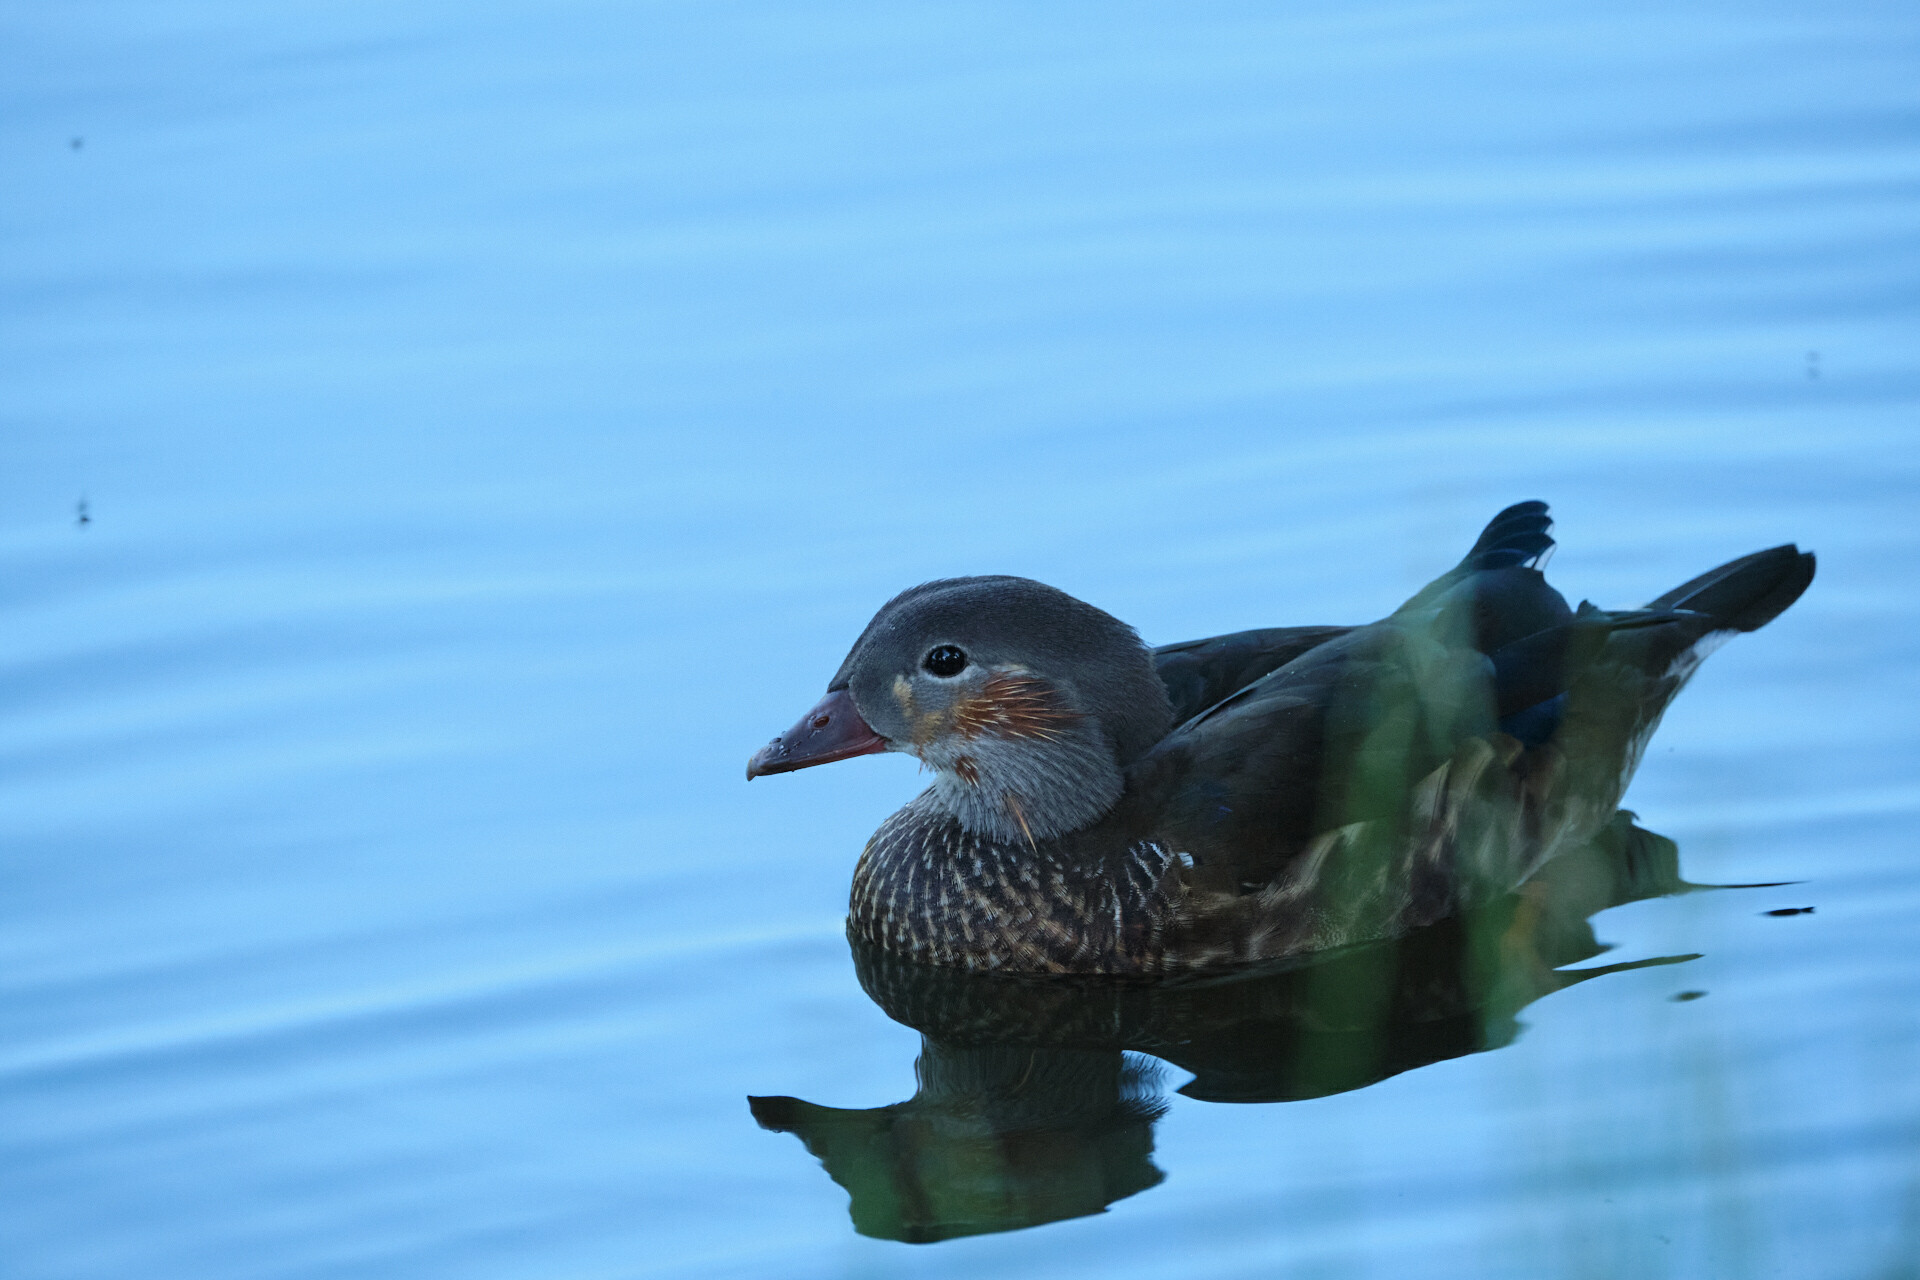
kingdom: Animalia
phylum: Chordata
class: Aves
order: Anseriformes
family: Anatidae
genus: Aix
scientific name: Aix galericulata
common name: Mandarin duck
